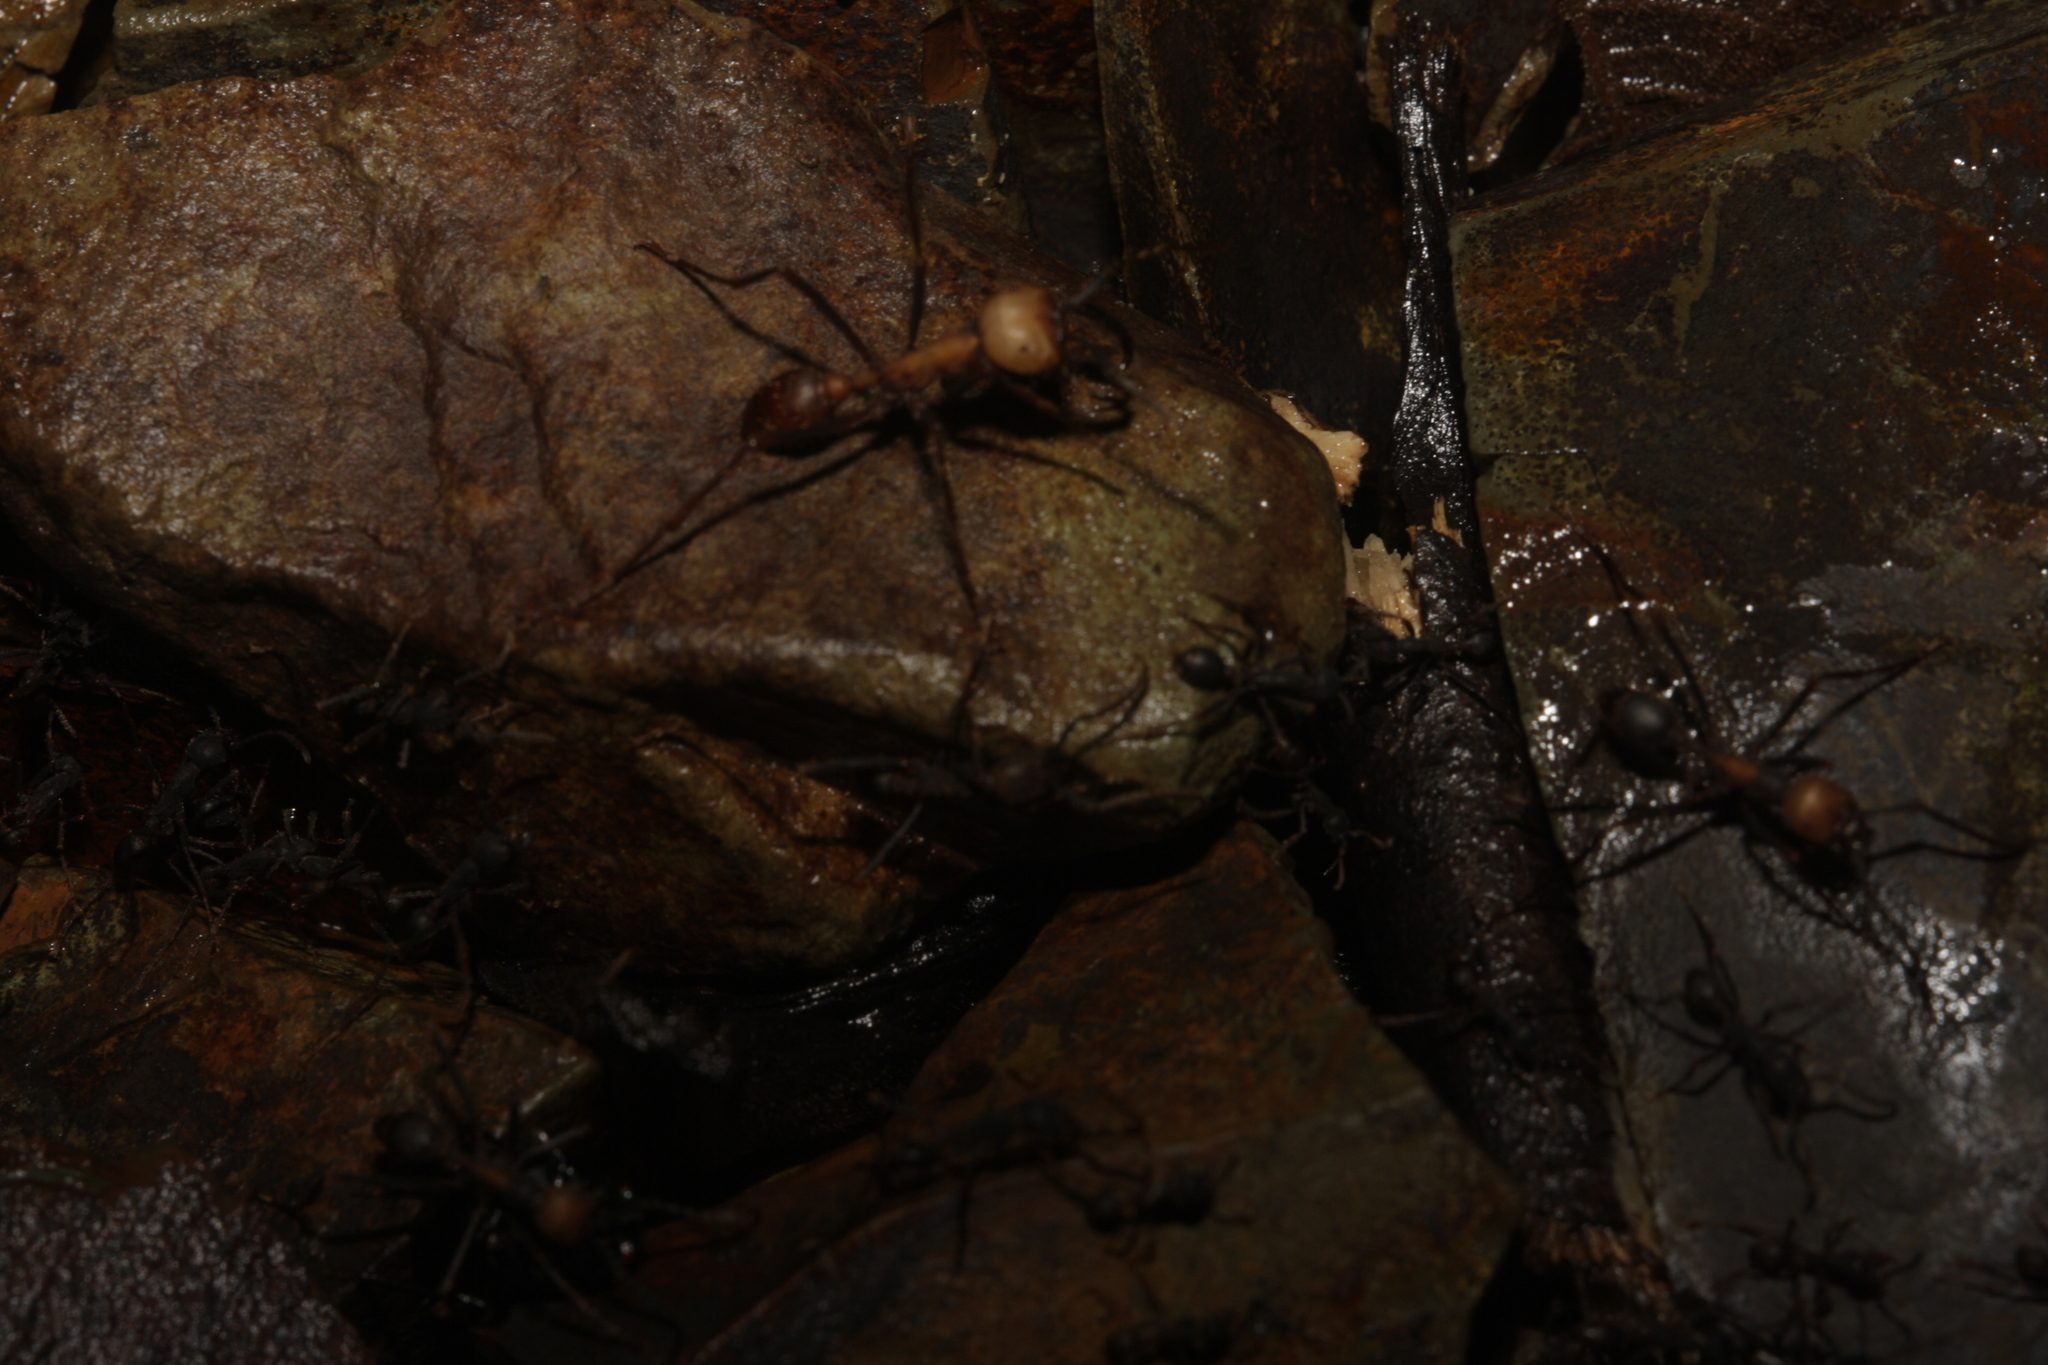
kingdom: Animalia
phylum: Arthropoda
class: Insecta
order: Hymenoptera
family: Formicidae
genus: Eciton
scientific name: Eciton burchellii
